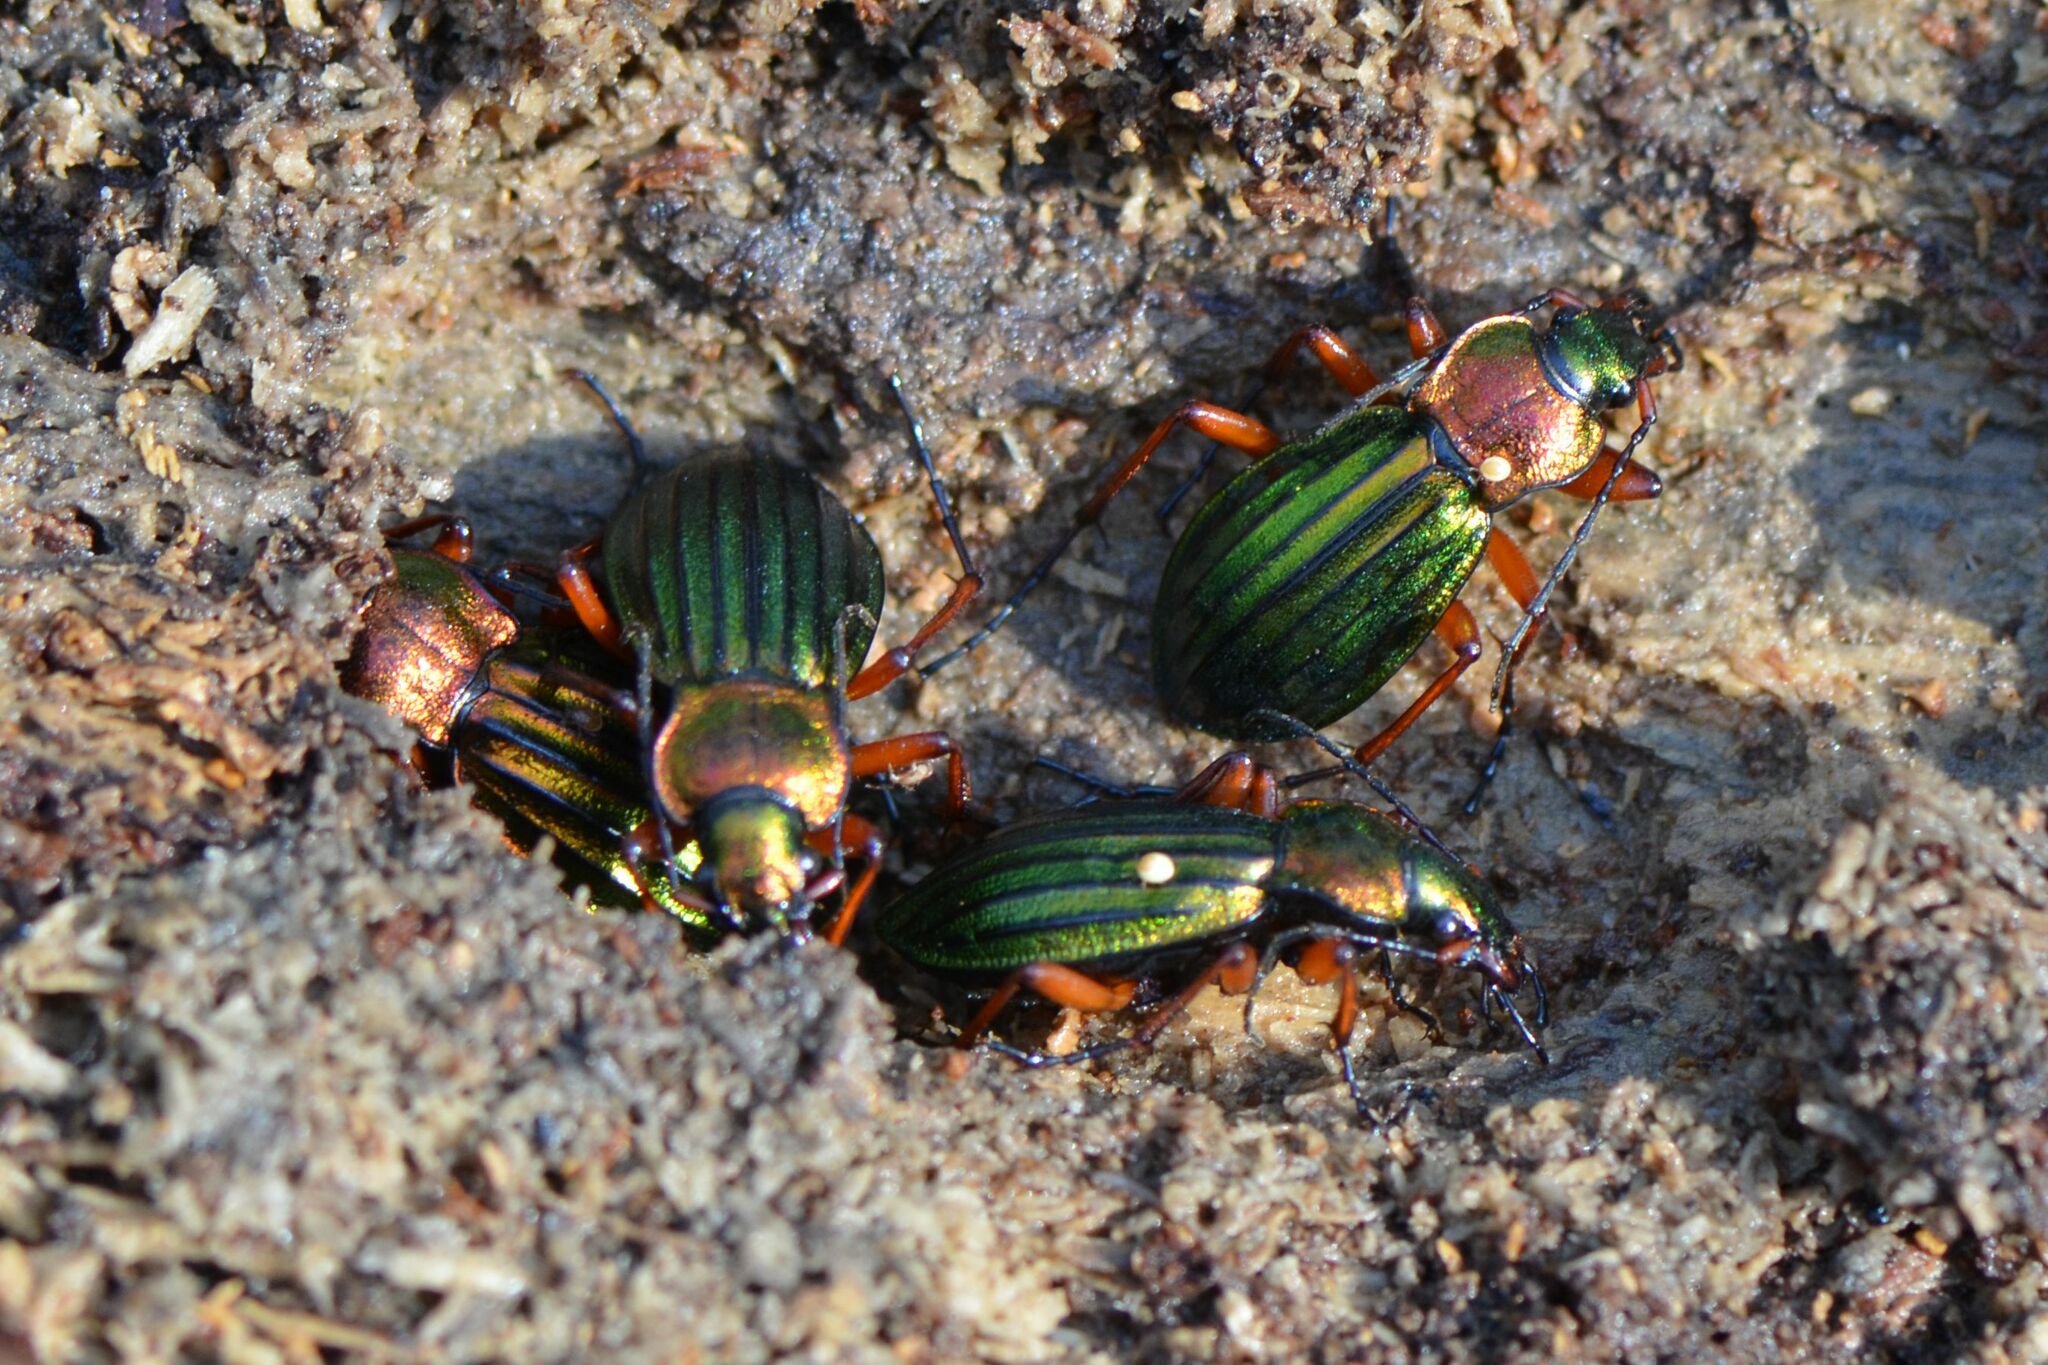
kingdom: Animalia
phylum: Arthropoda
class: Insecta
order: Coleoptera
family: Carabidae
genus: Carabus
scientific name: Carabus auronitens
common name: Carabus auronitens
